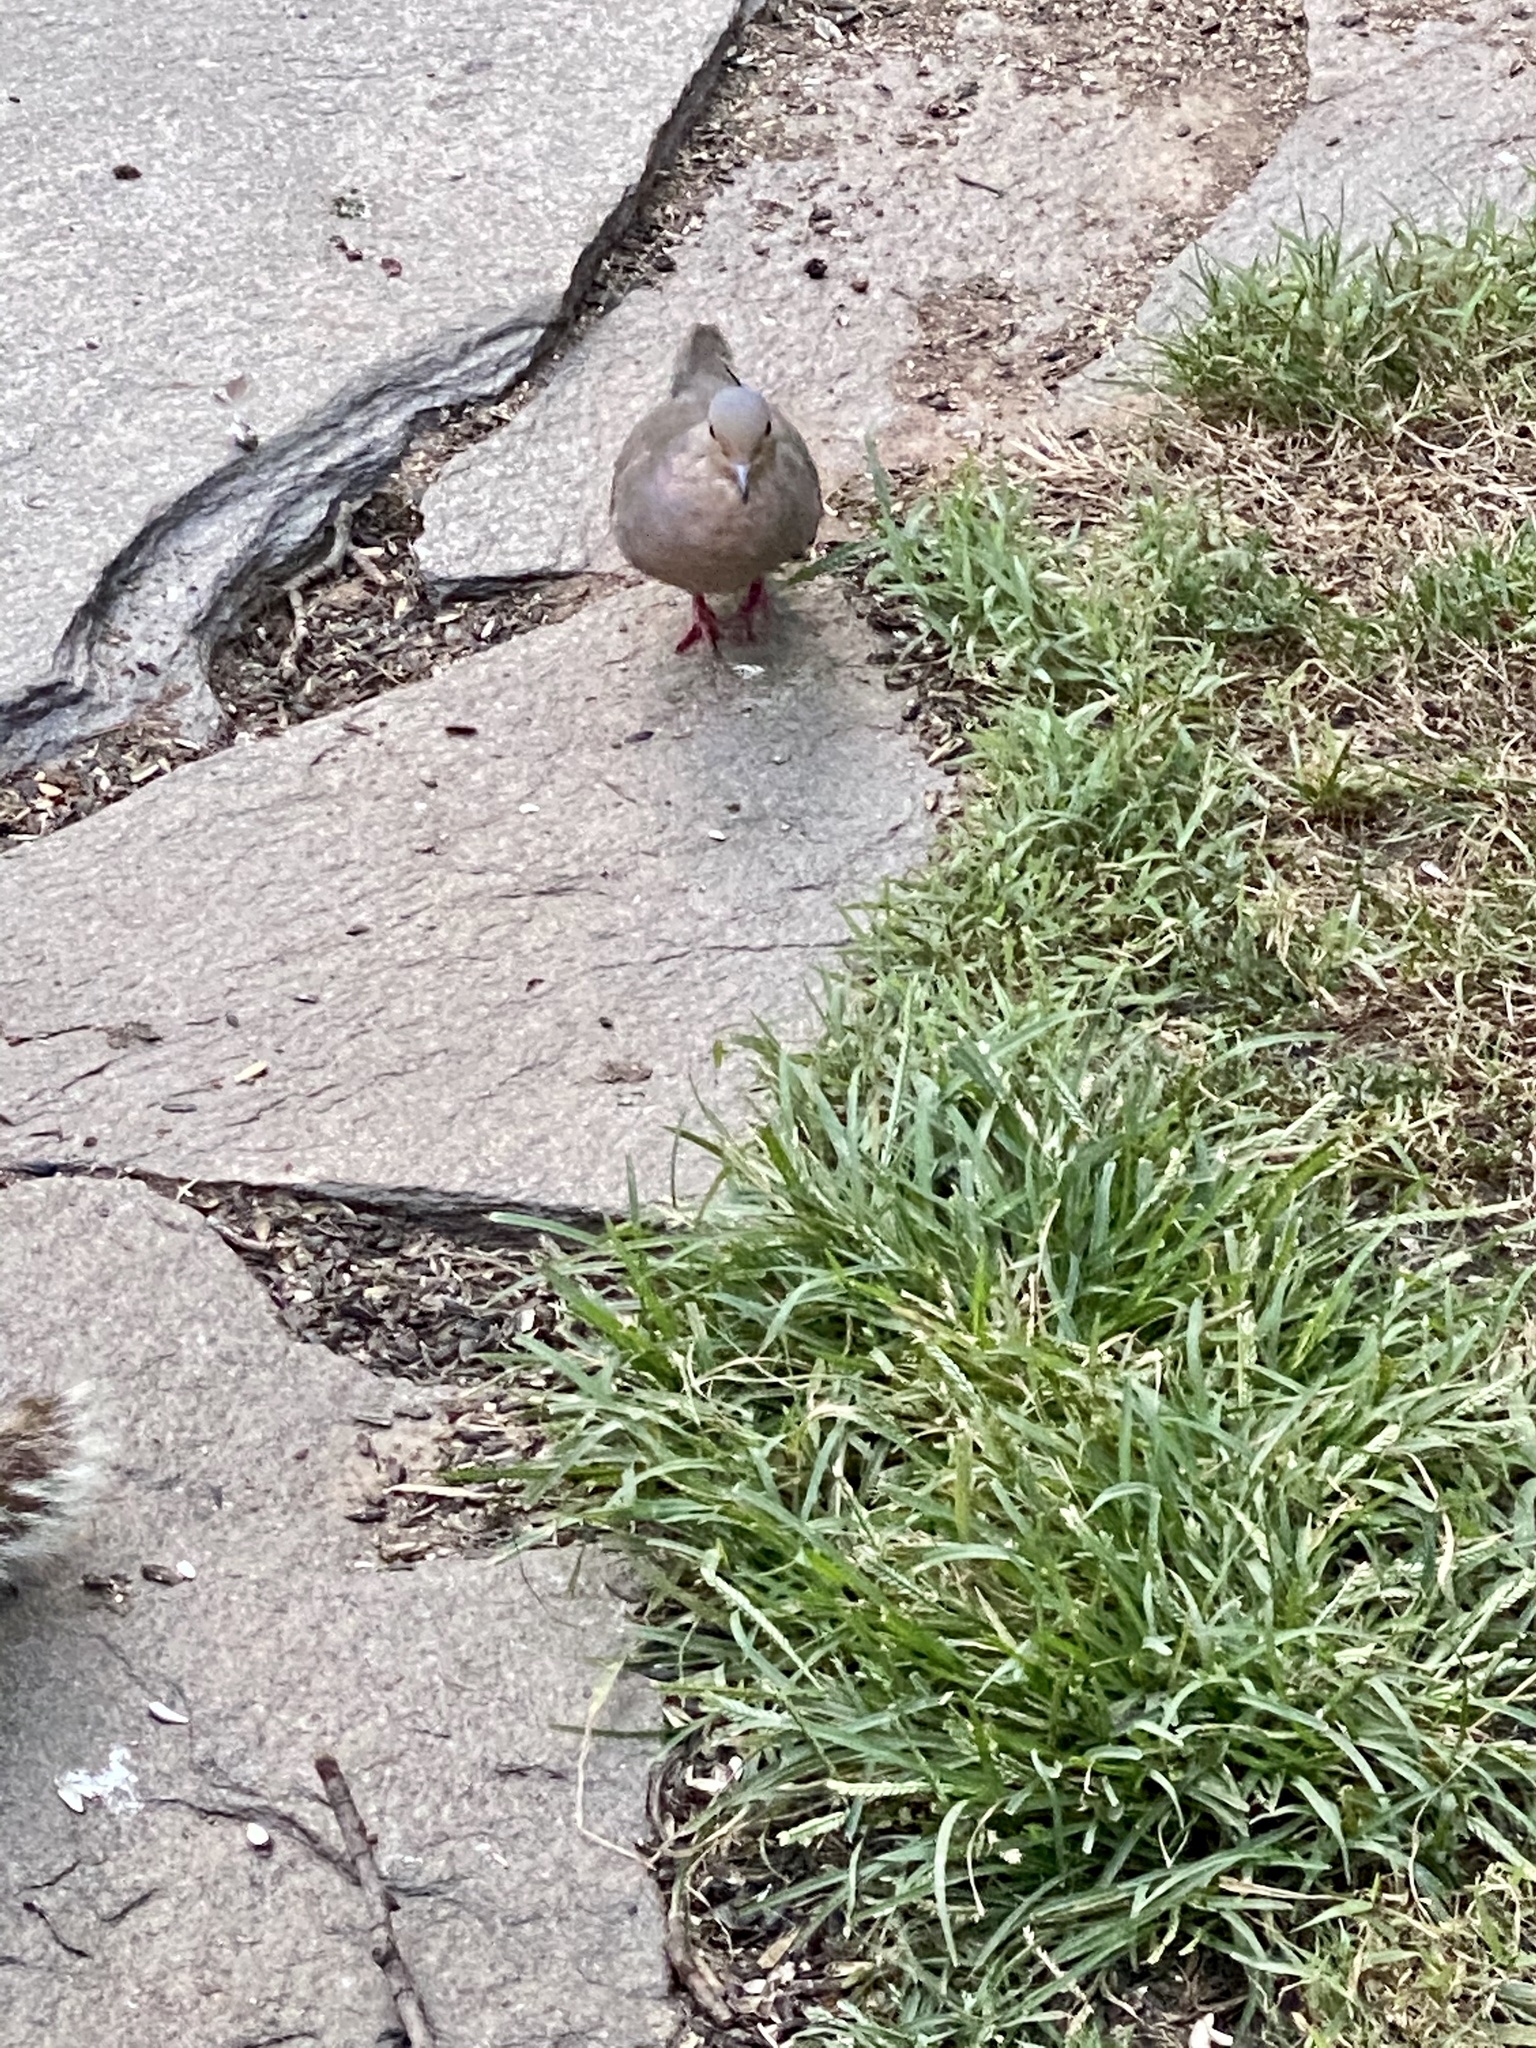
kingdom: Animalia
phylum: Chordata
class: Aves
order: Columbiformes
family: Columbidae
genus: Zenaida
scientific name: Zenaida macroura
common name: Mourning dove
